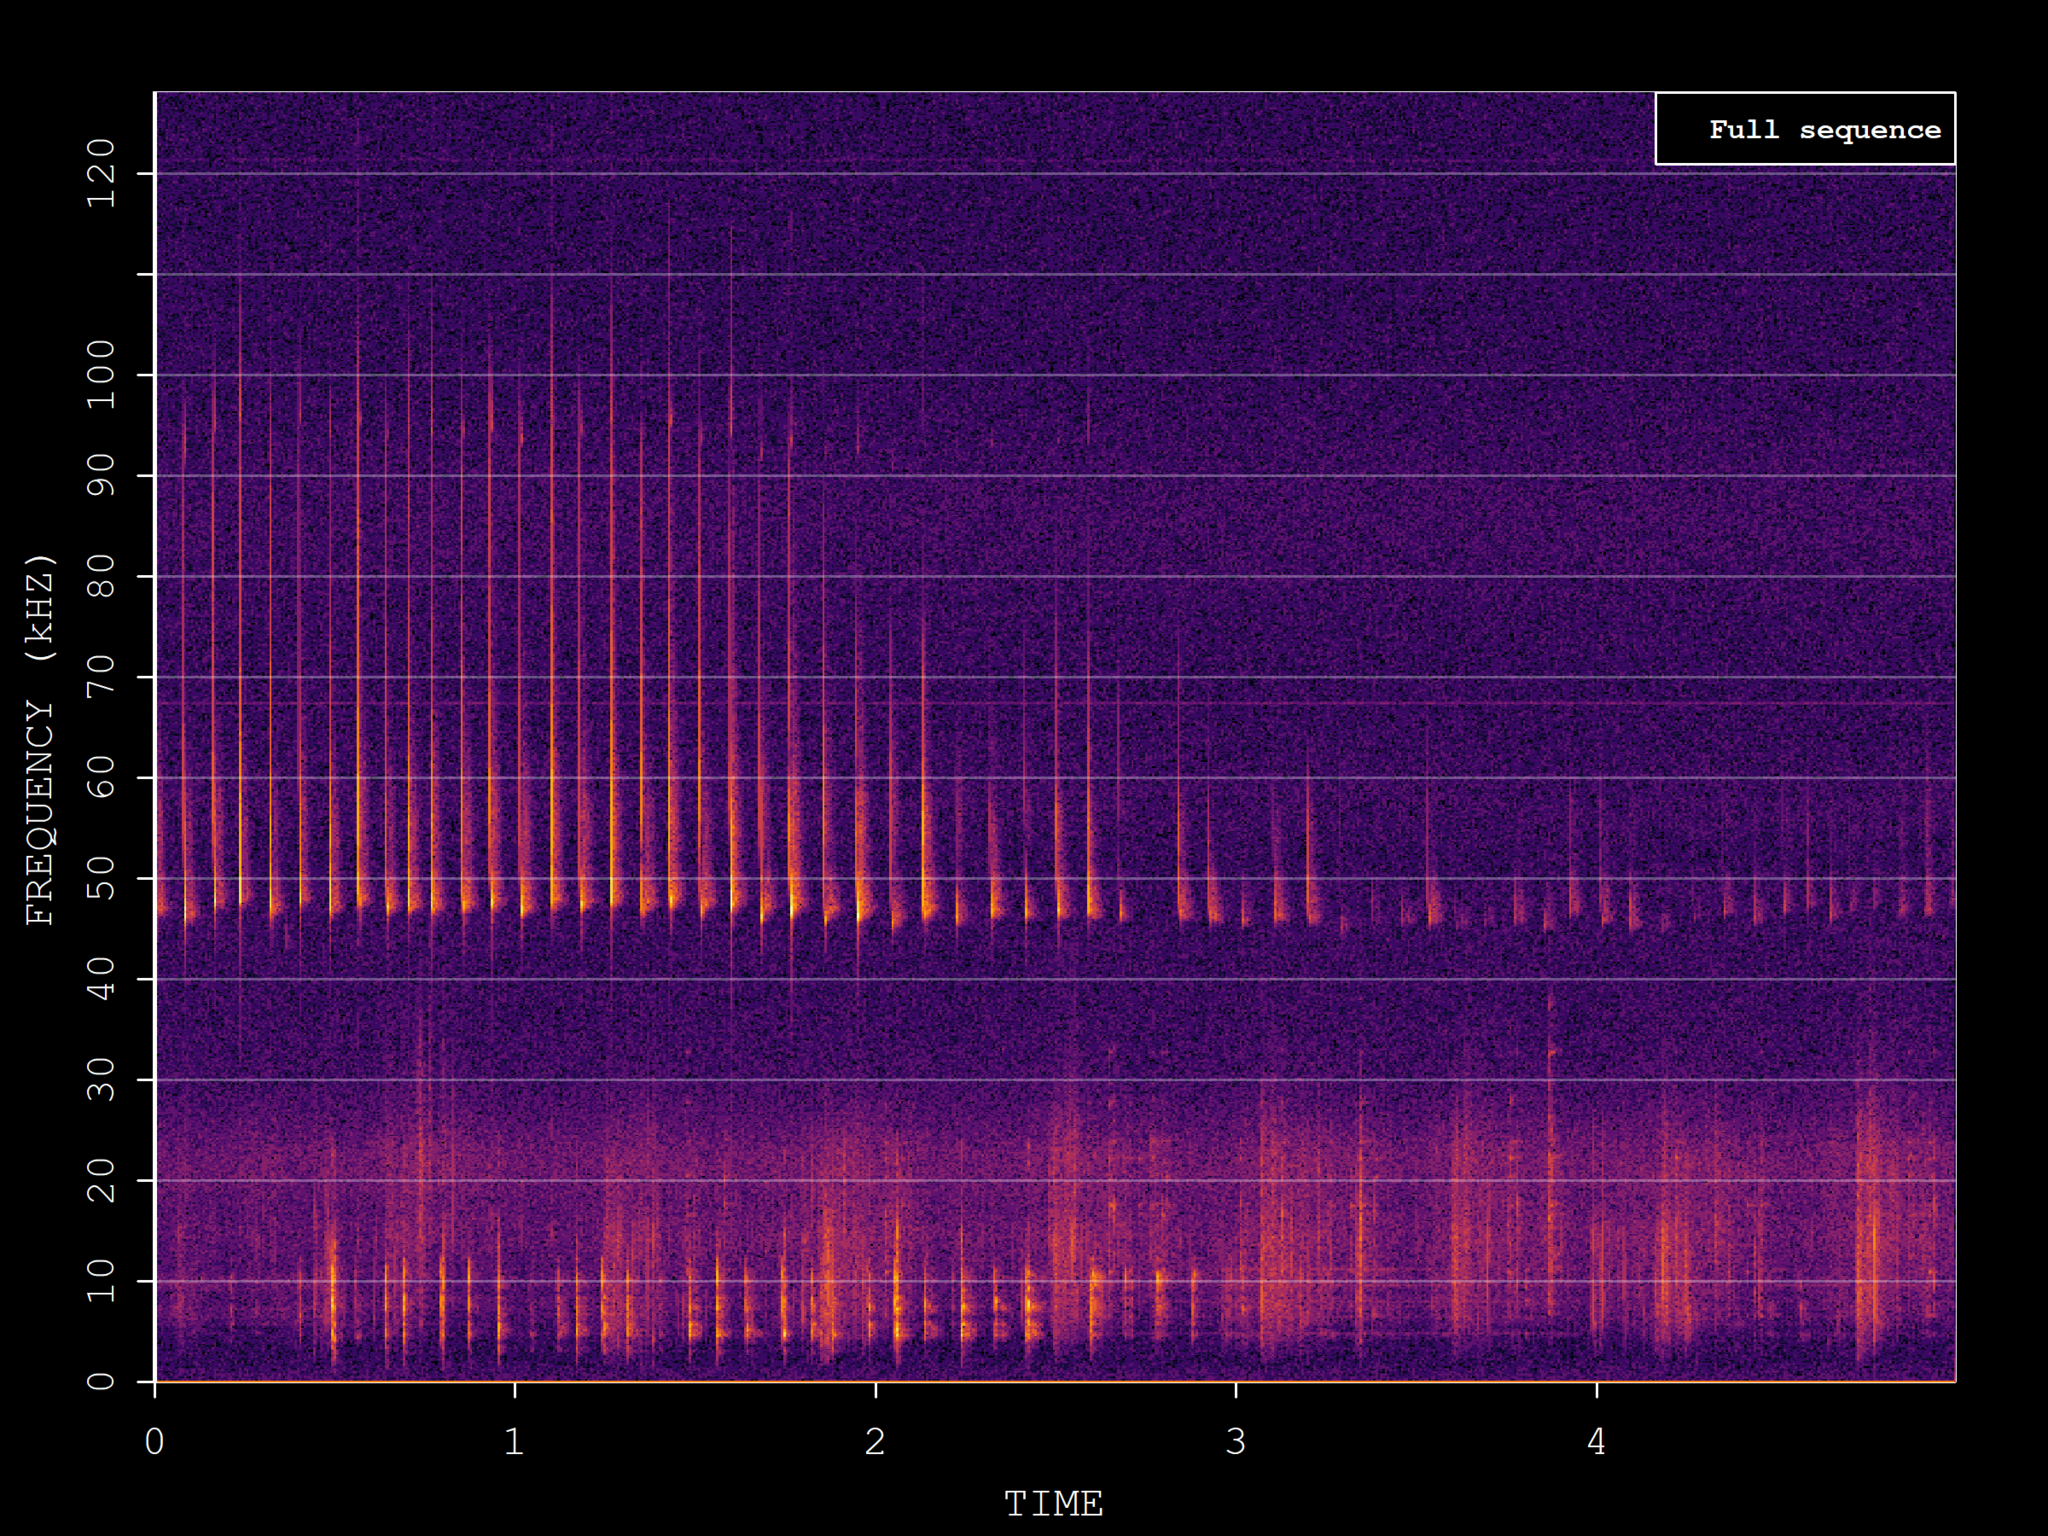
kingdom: Animalia
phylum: Chordata
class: Mammalia
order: Chiroptera
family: Vespertilionidae
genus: Pipistrellus
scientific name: Pipistrellus pipistrellus
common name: Common pipistrelle
